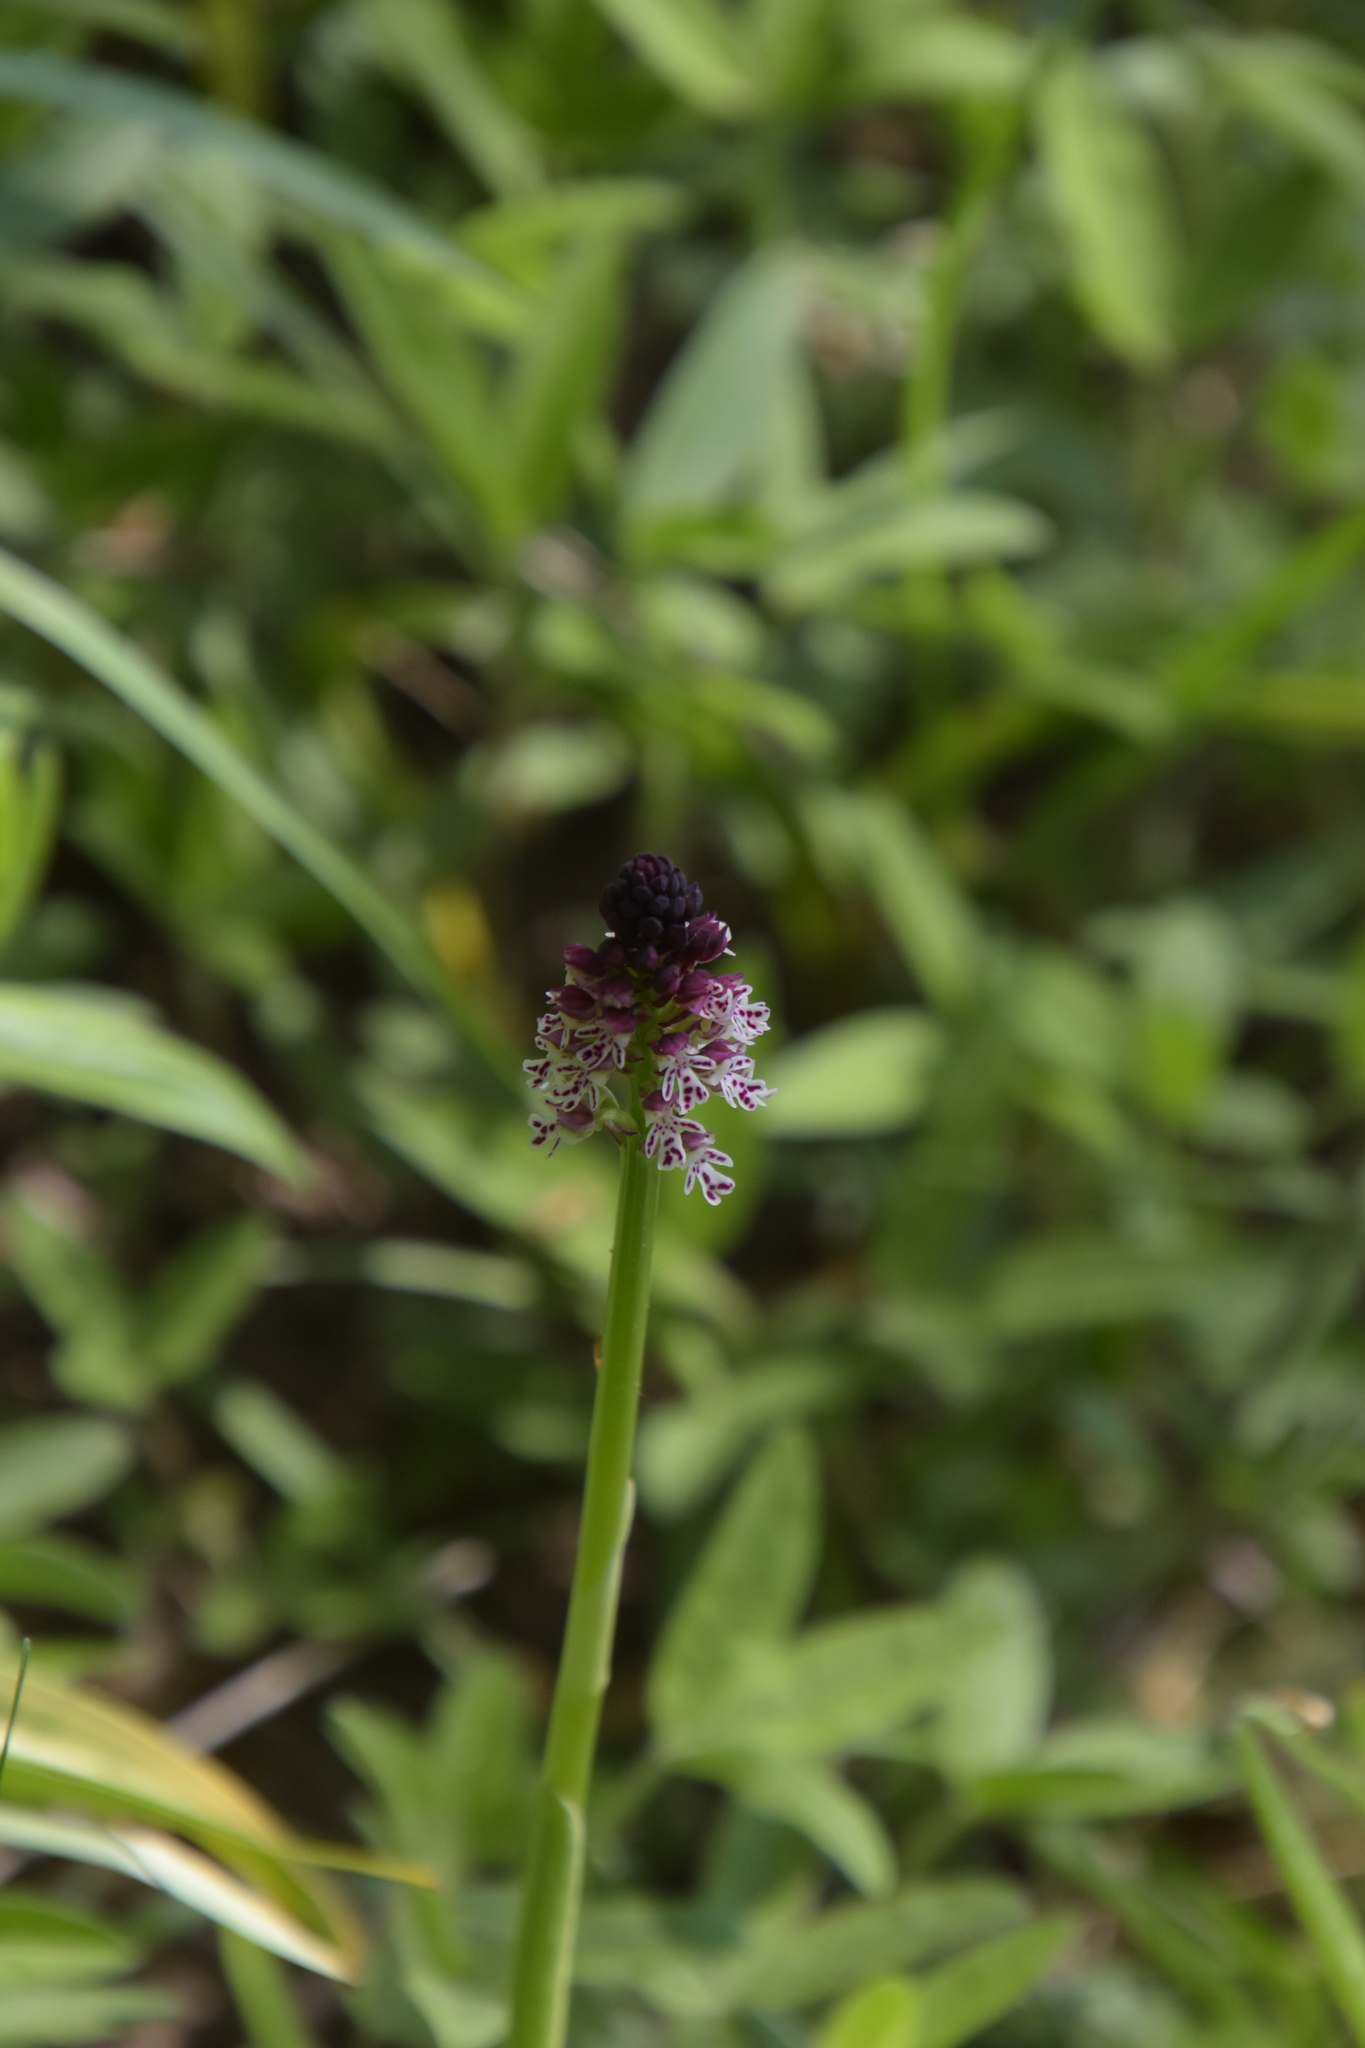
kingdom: Plantae
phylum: Tracheophyta
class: Liliopsida
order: Asparagales
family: Orchidaceae
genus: Neotinea
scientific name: Neotinea ustulata
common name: Burnt orchid
